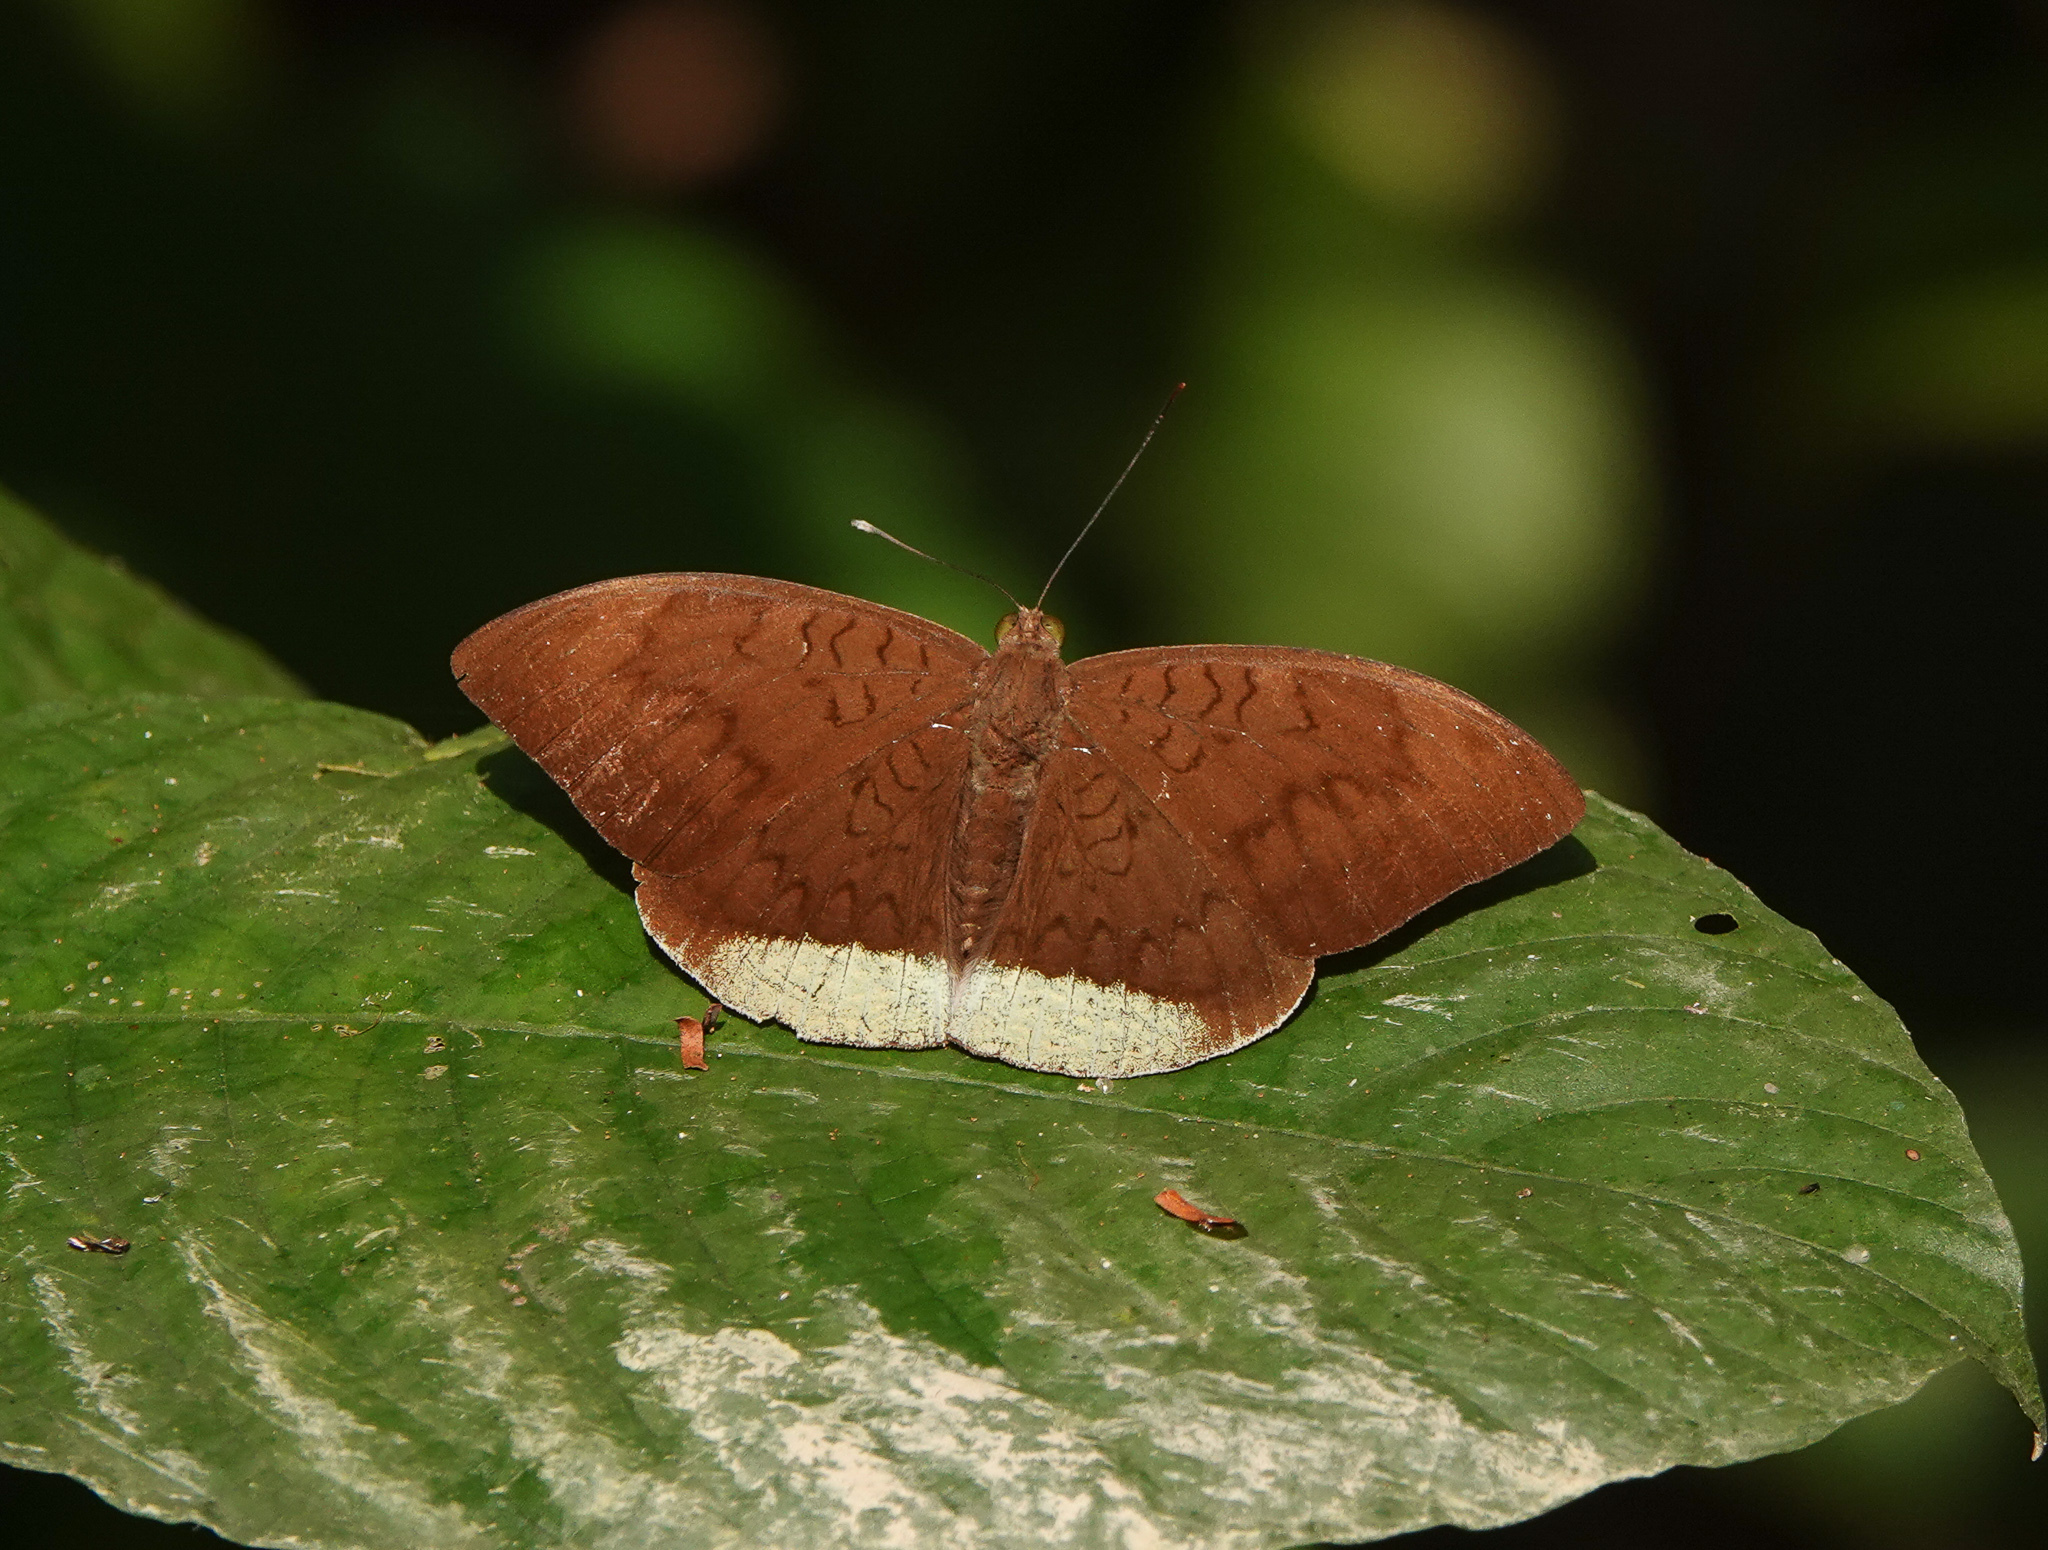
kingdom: Animalia
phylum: Arthropoda
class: Insecta
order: Lepidoptera
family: Nymphalidae
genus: Tanaecia
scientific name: Tanaecia julii
